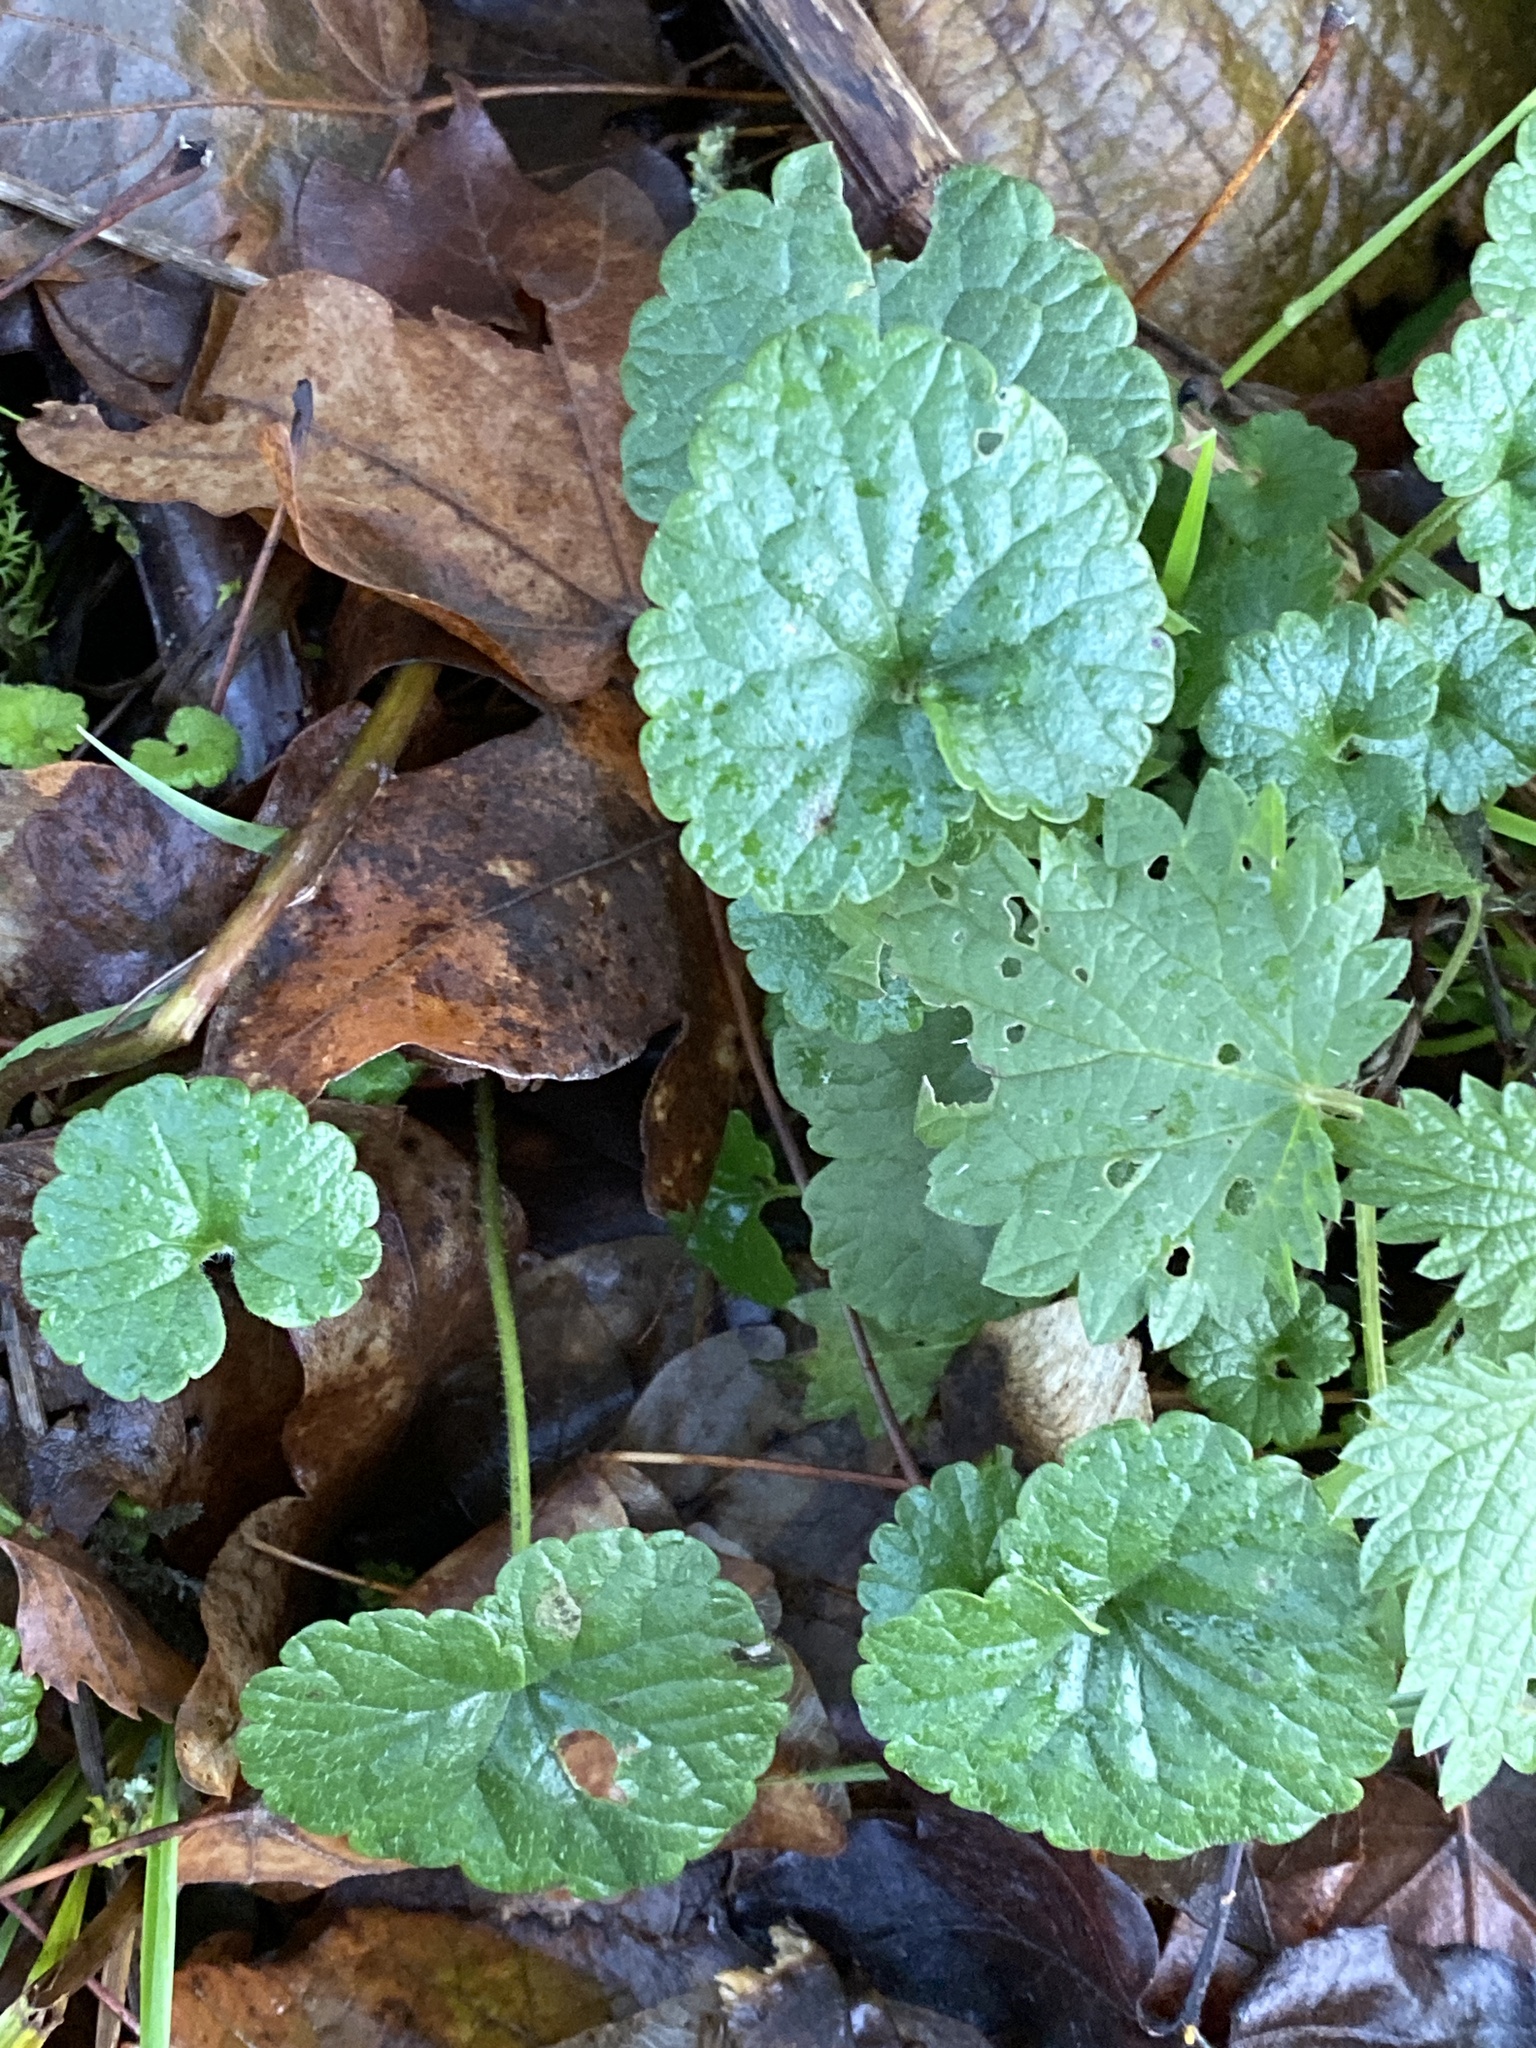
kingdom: Plantae
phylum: Tracheophyta
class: Magnoliopsida
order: Lamiales
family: Lamiaceae
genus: Glechoma
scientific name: Glechoma hederacea
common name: Ground ivy
